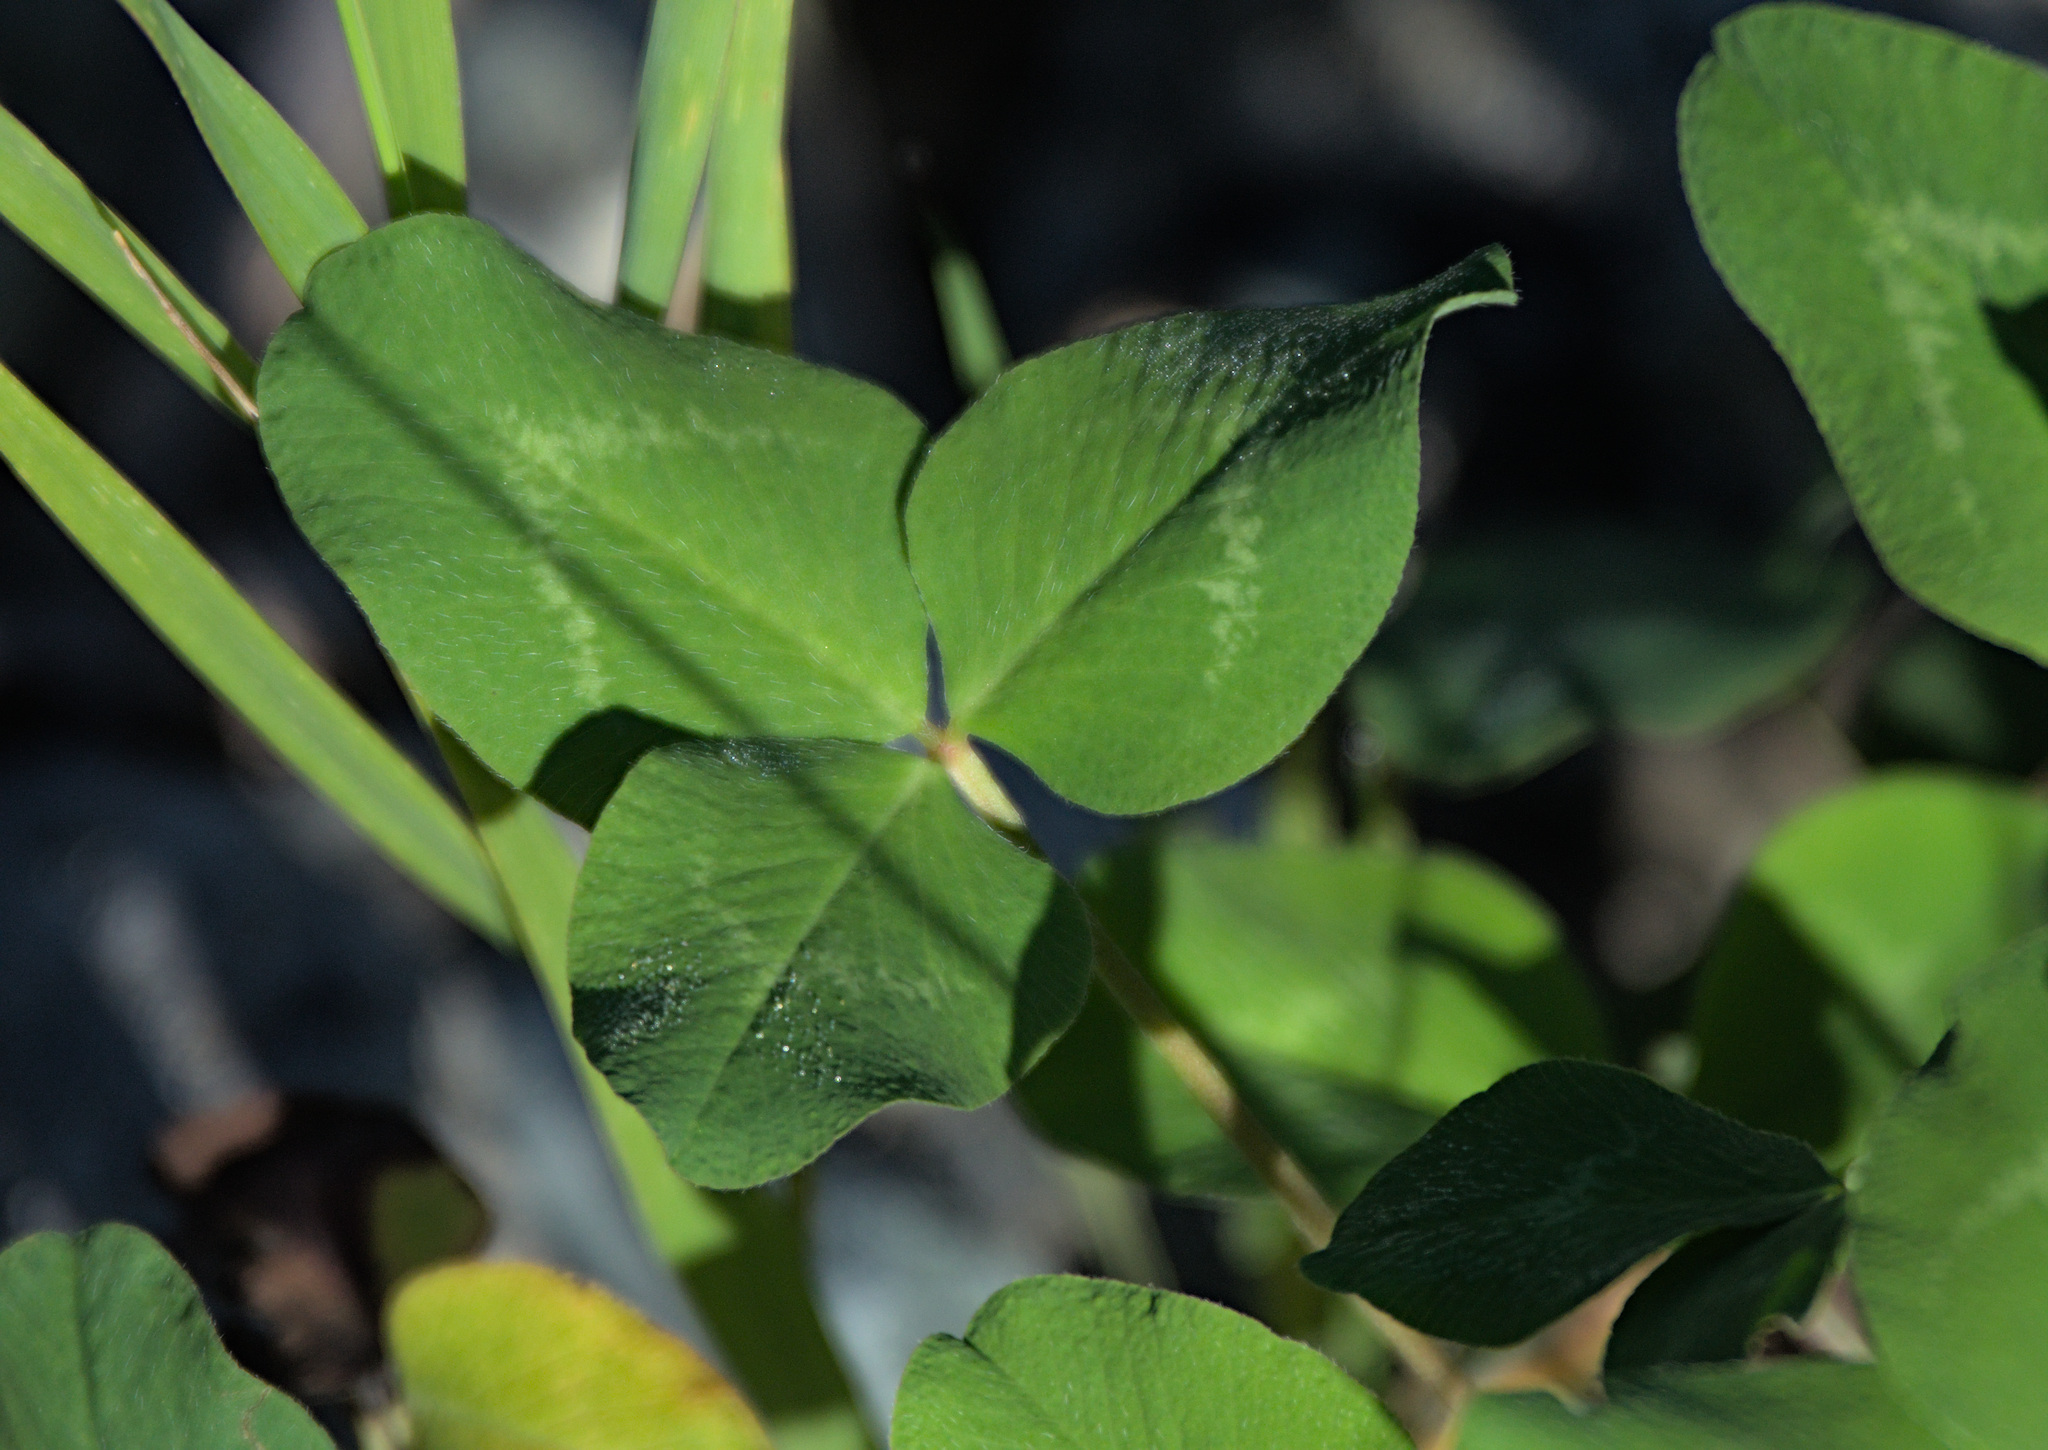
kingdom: Plantae
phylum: Tracheophyta
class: Magnoliopsida
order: Fabales
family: Fabaceae
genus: Trifolium
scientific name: Trifolium pratense
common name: Red clover
